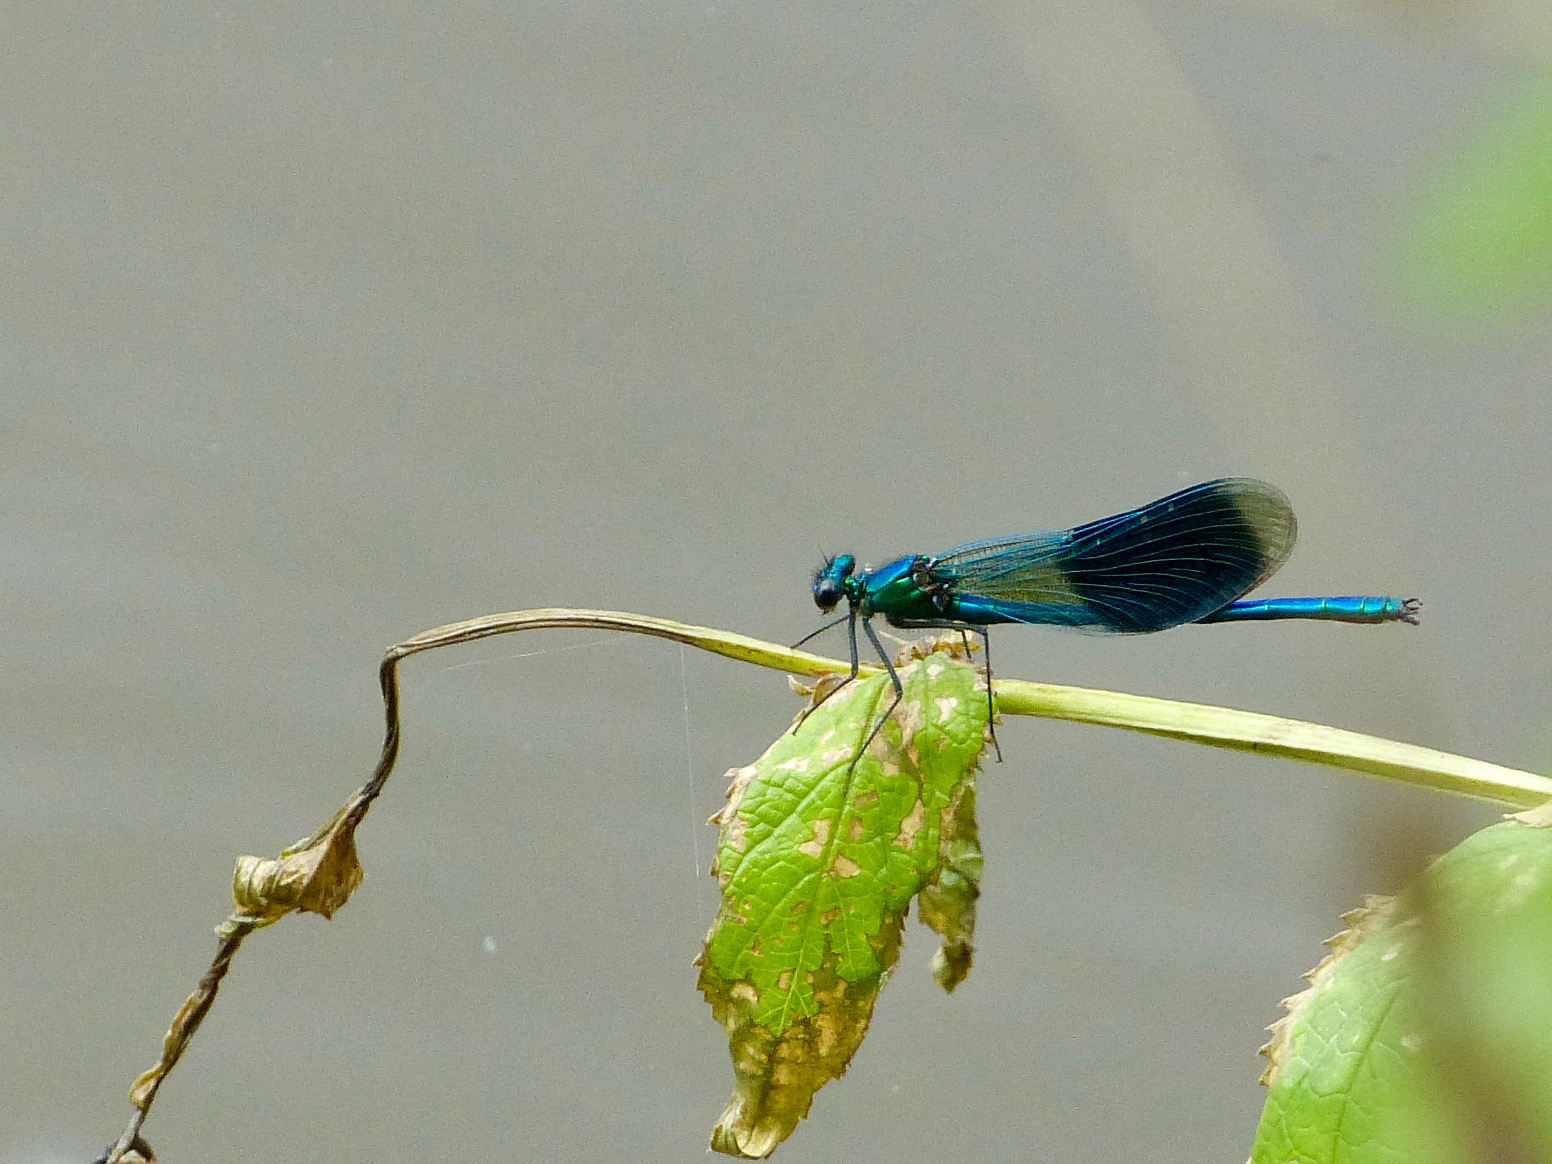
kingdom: Animalia
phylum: Arthropoda
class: Insecta
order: Odonata
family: Calopterygidae
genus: Calopteryx
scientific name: Calopteryx splendens
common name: Banded demoiselle
